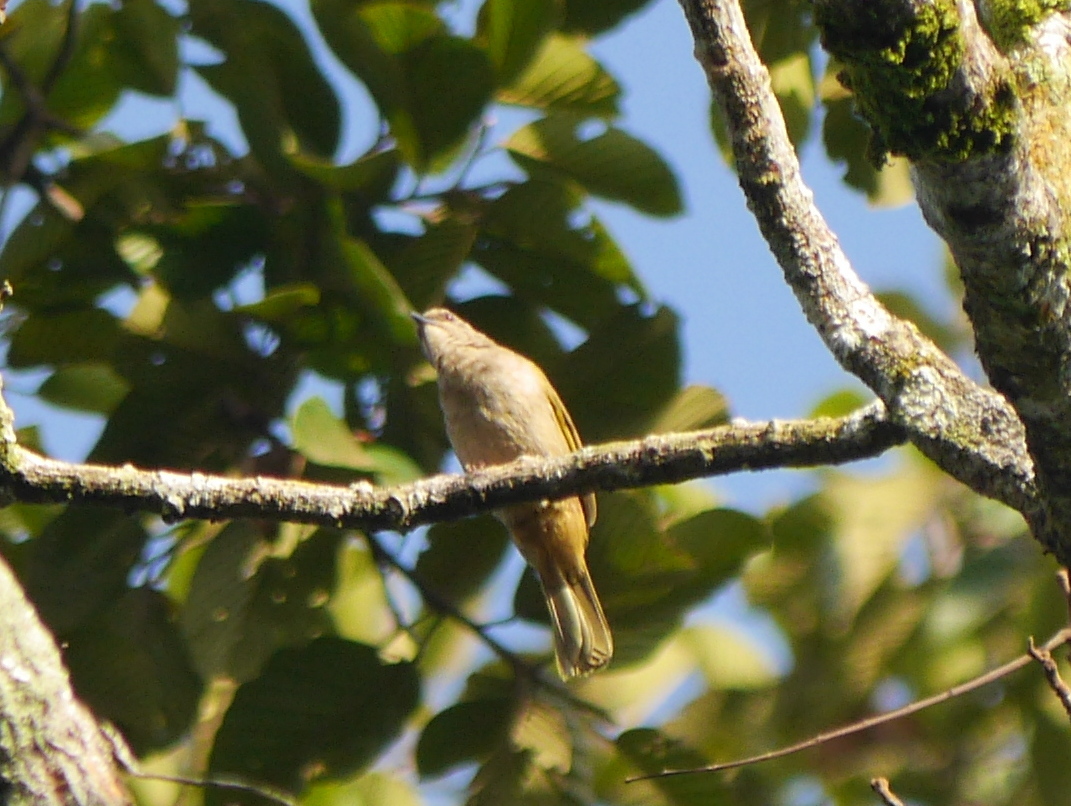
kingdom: Animalia
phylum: Chordata
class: Aves
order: Passeriformes
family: Pycnonotidae
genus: Pycnonotus
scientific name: Pycnonotus plumosus
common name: Olive-winged bulbul
